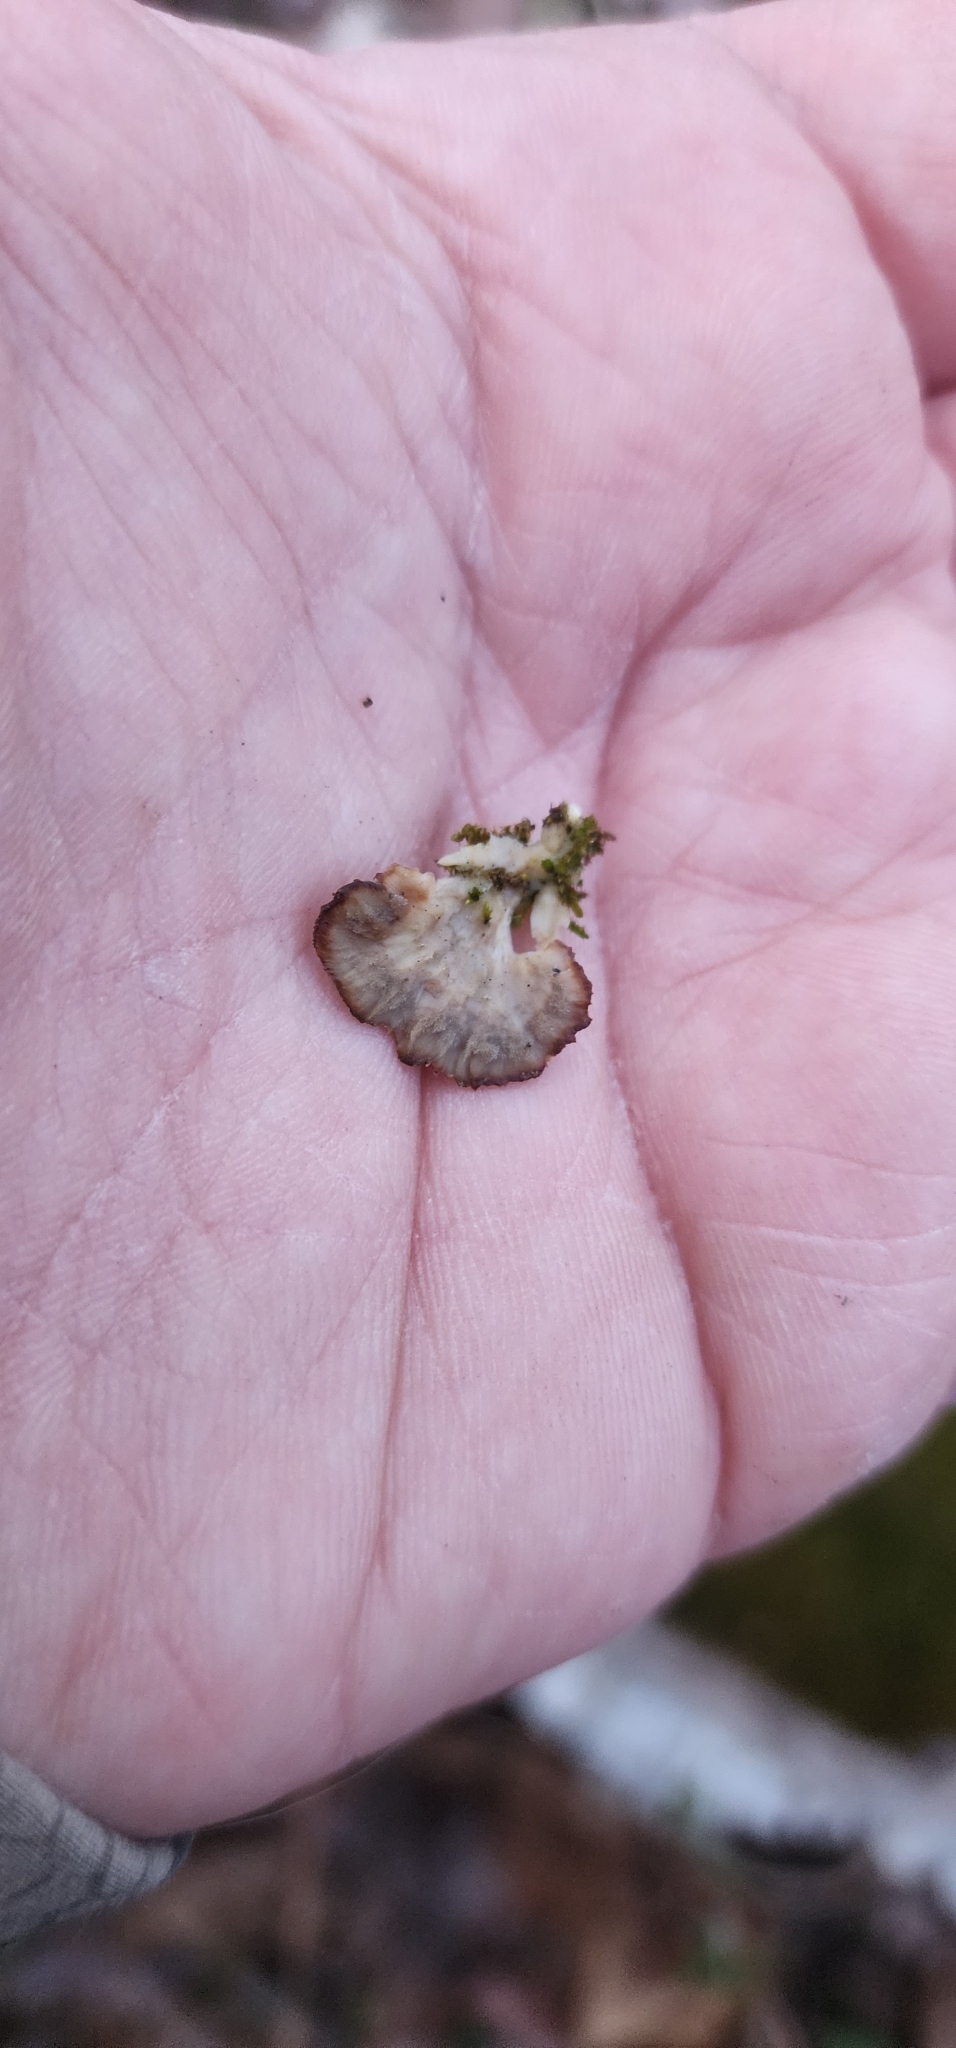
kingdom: Fungi
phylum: Basidiomycota
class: Agaricomycetes
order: Hymenochaetales
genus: Trichaptum
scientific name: Trichaptum biforme
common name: Violet-toothed polypore
